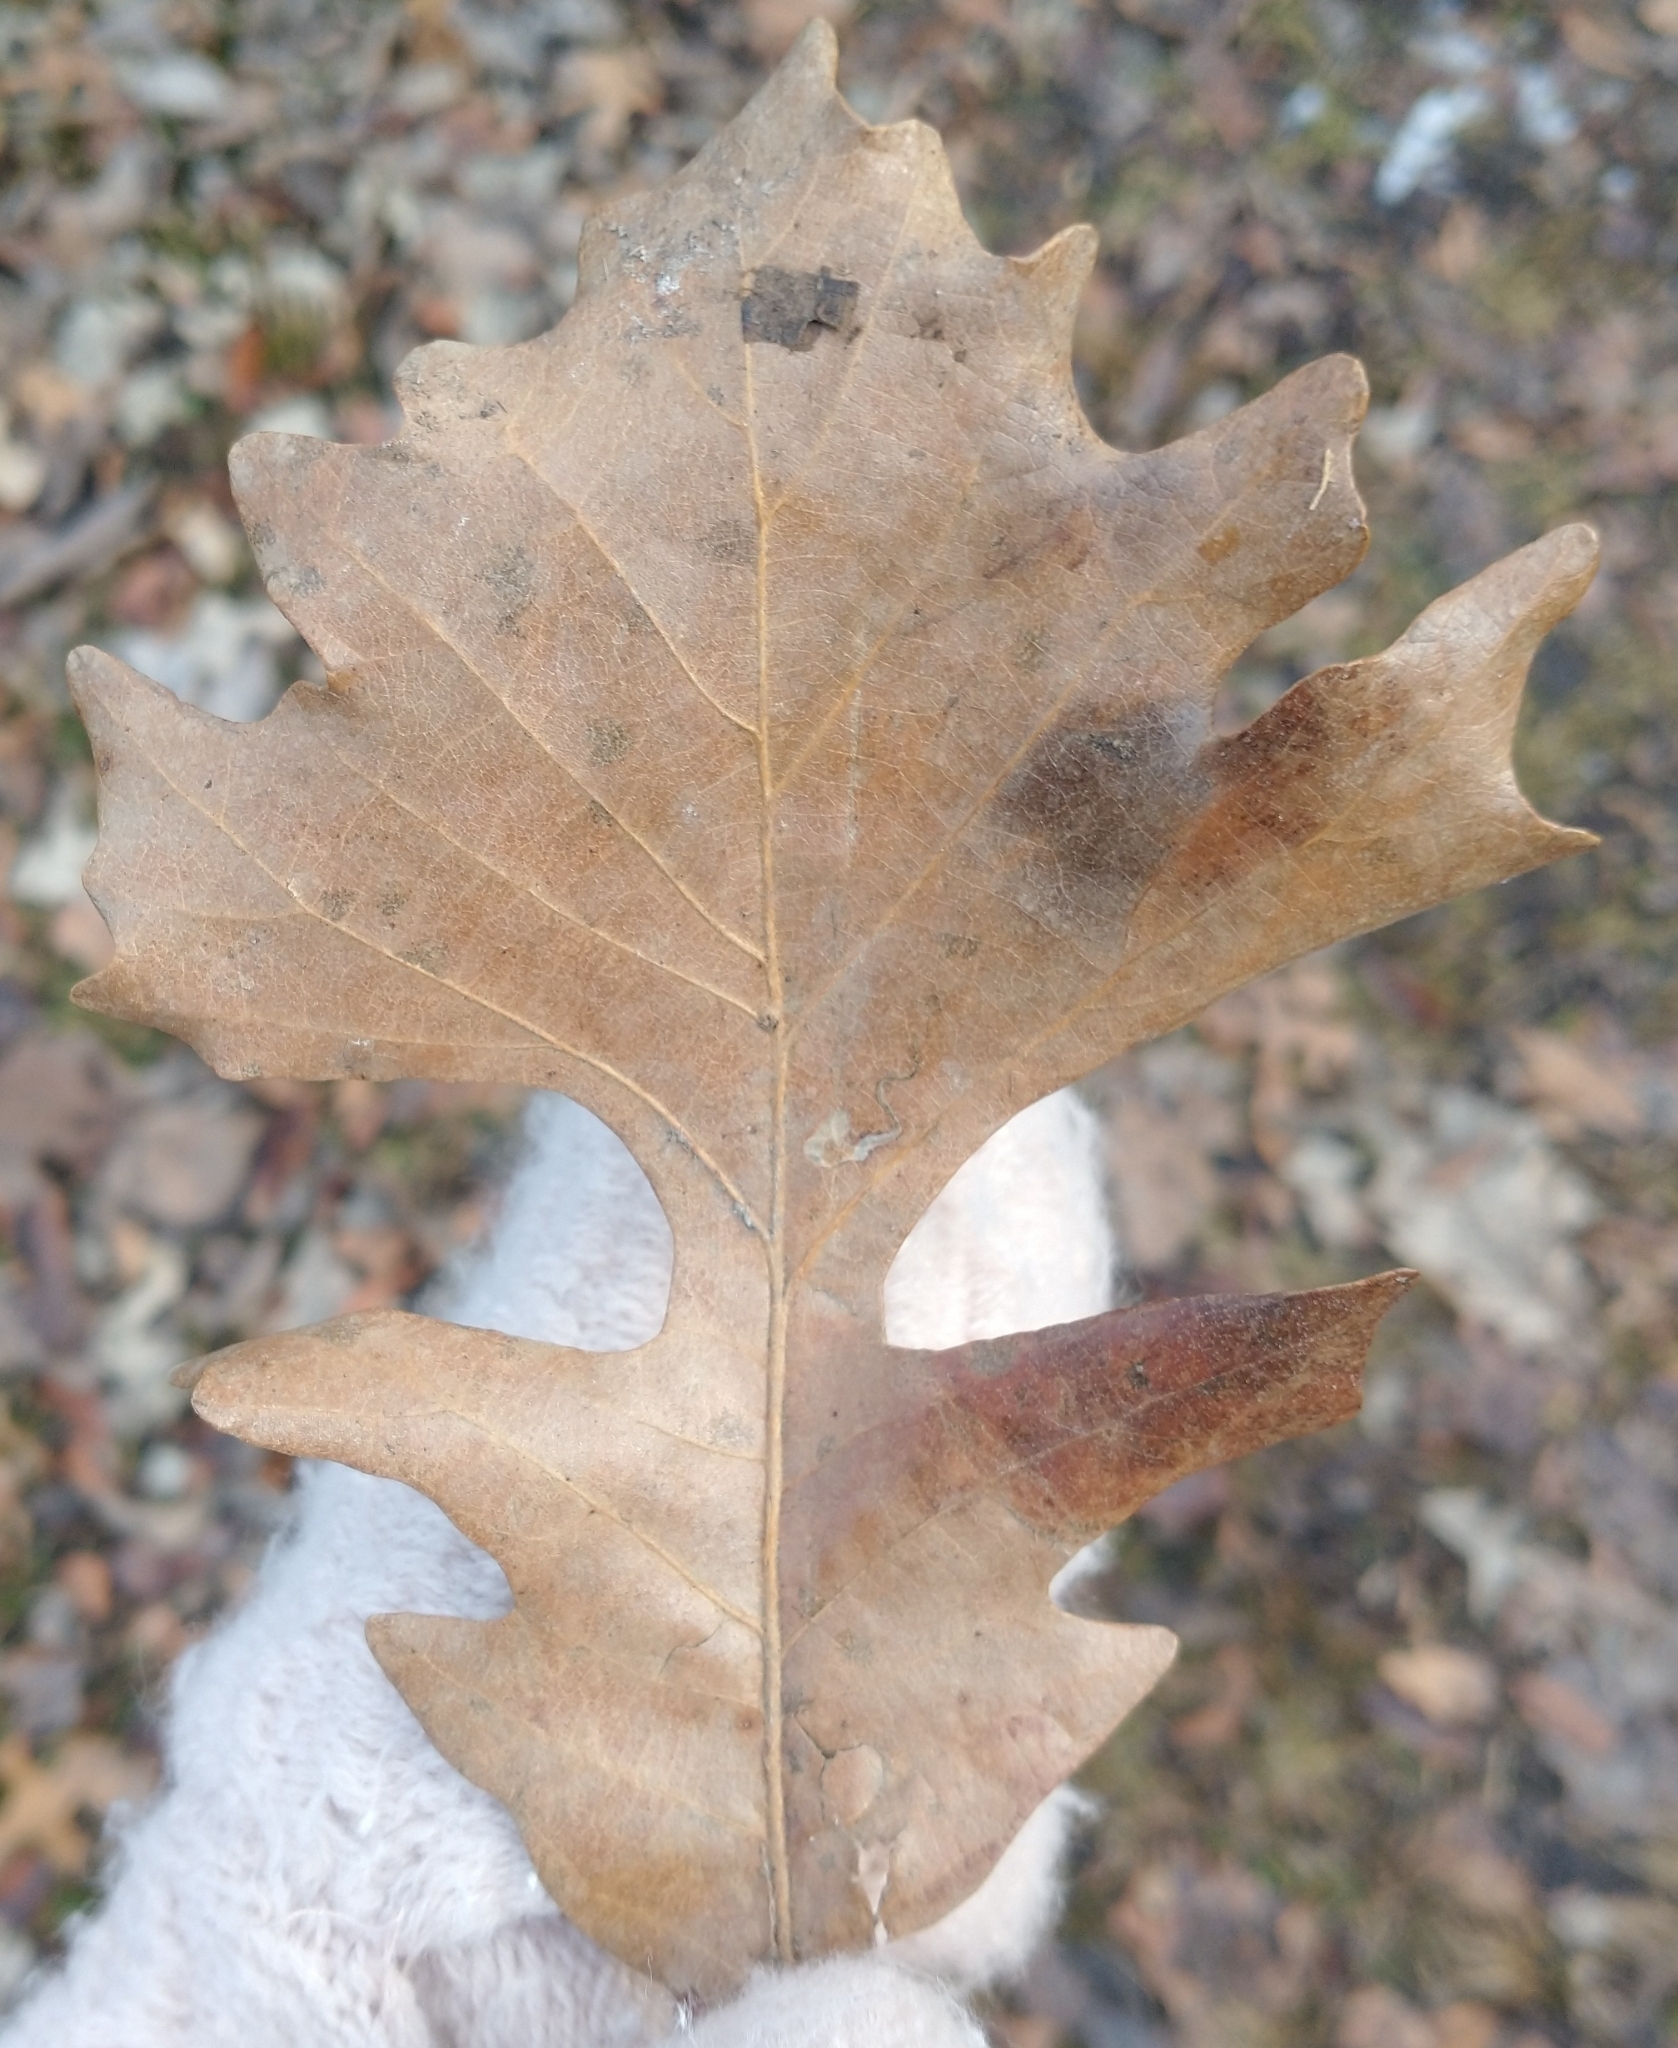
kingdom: Plantae
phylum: Tracheophyta
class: Magnoliopsida
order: Fagales
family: Fagaceae
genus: Quercus
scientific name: Quercus macrocarpa
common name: Bur oak
